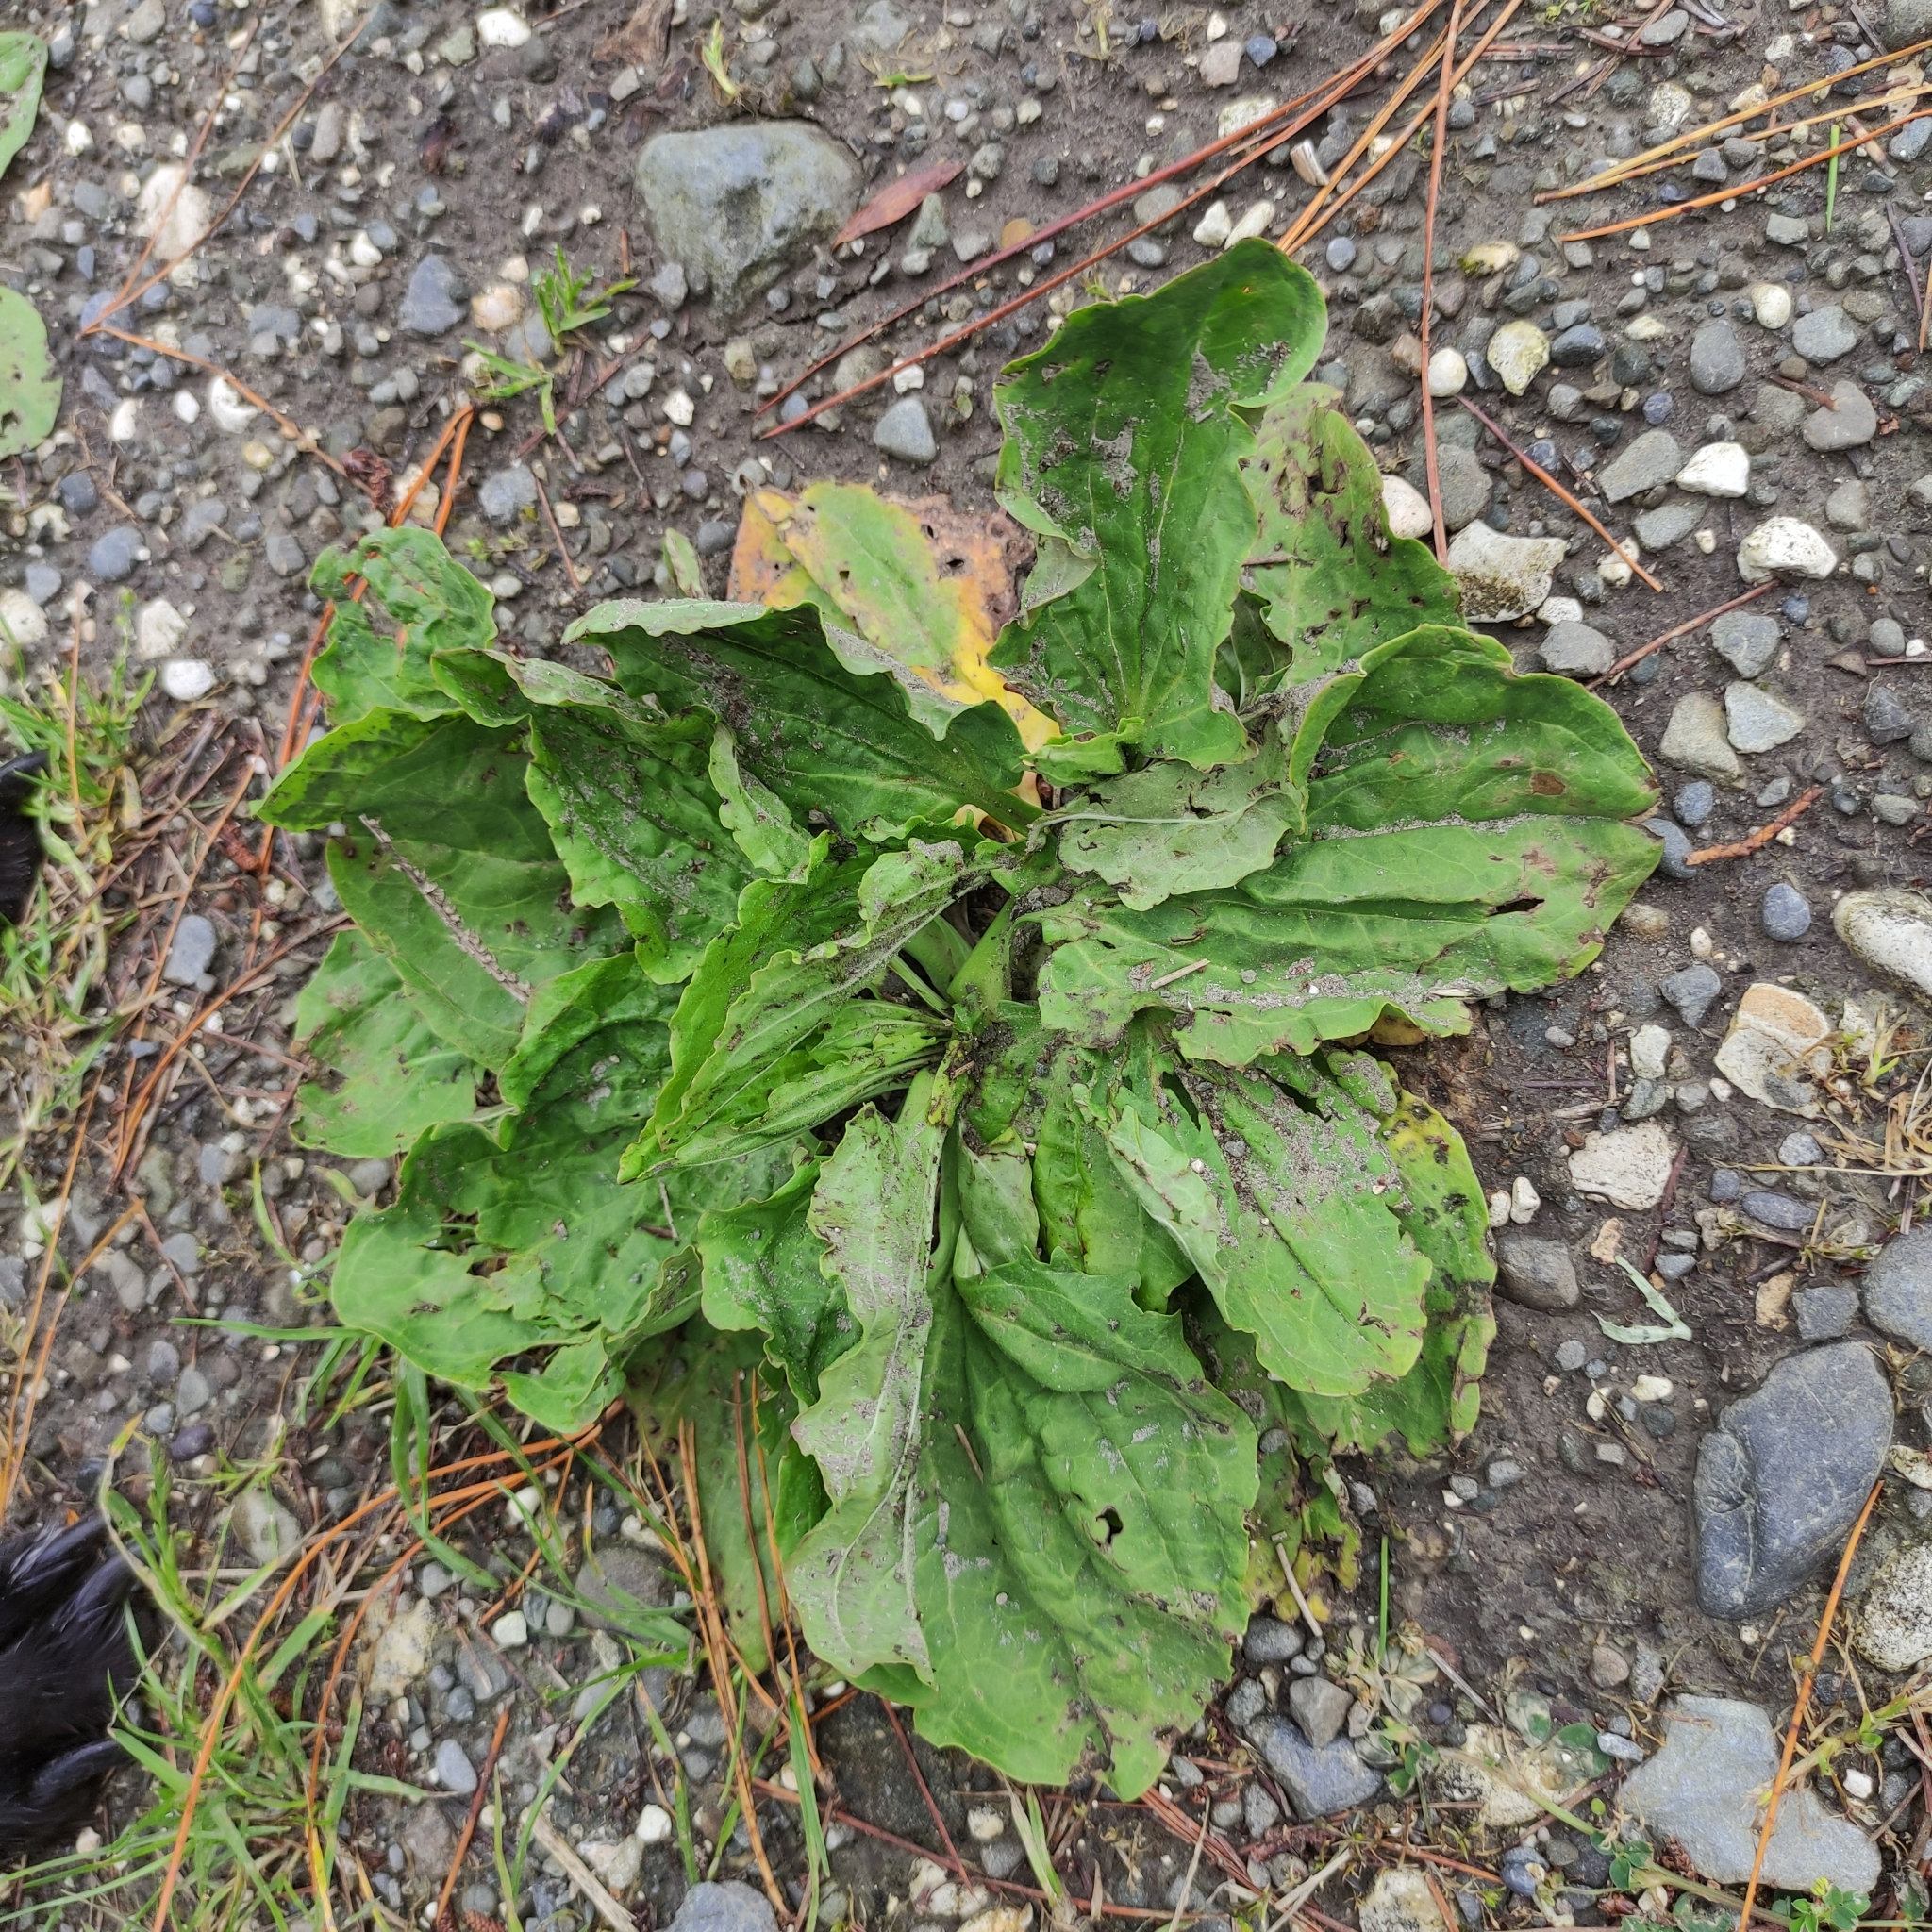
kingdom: Plantae
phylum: Tracheophyta
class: Magnoliopsida
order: Lamiales
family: Plantaginaceae
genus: Plantago
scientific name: Plantago major
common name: Common plantain
